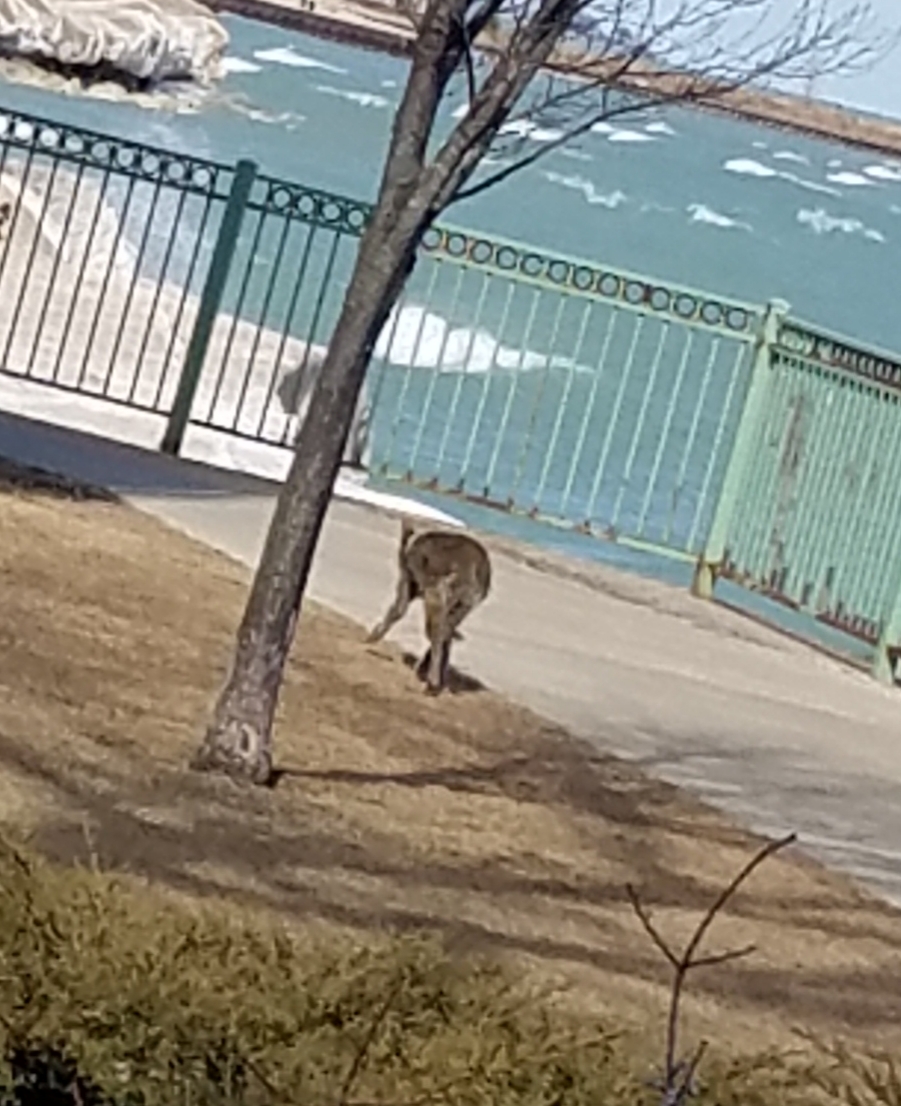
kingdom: Animalia
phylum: Chordata
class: Mammalia
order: Carnivora
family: Canidae
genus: Canis
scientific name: Canis latrans
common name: Coyote
